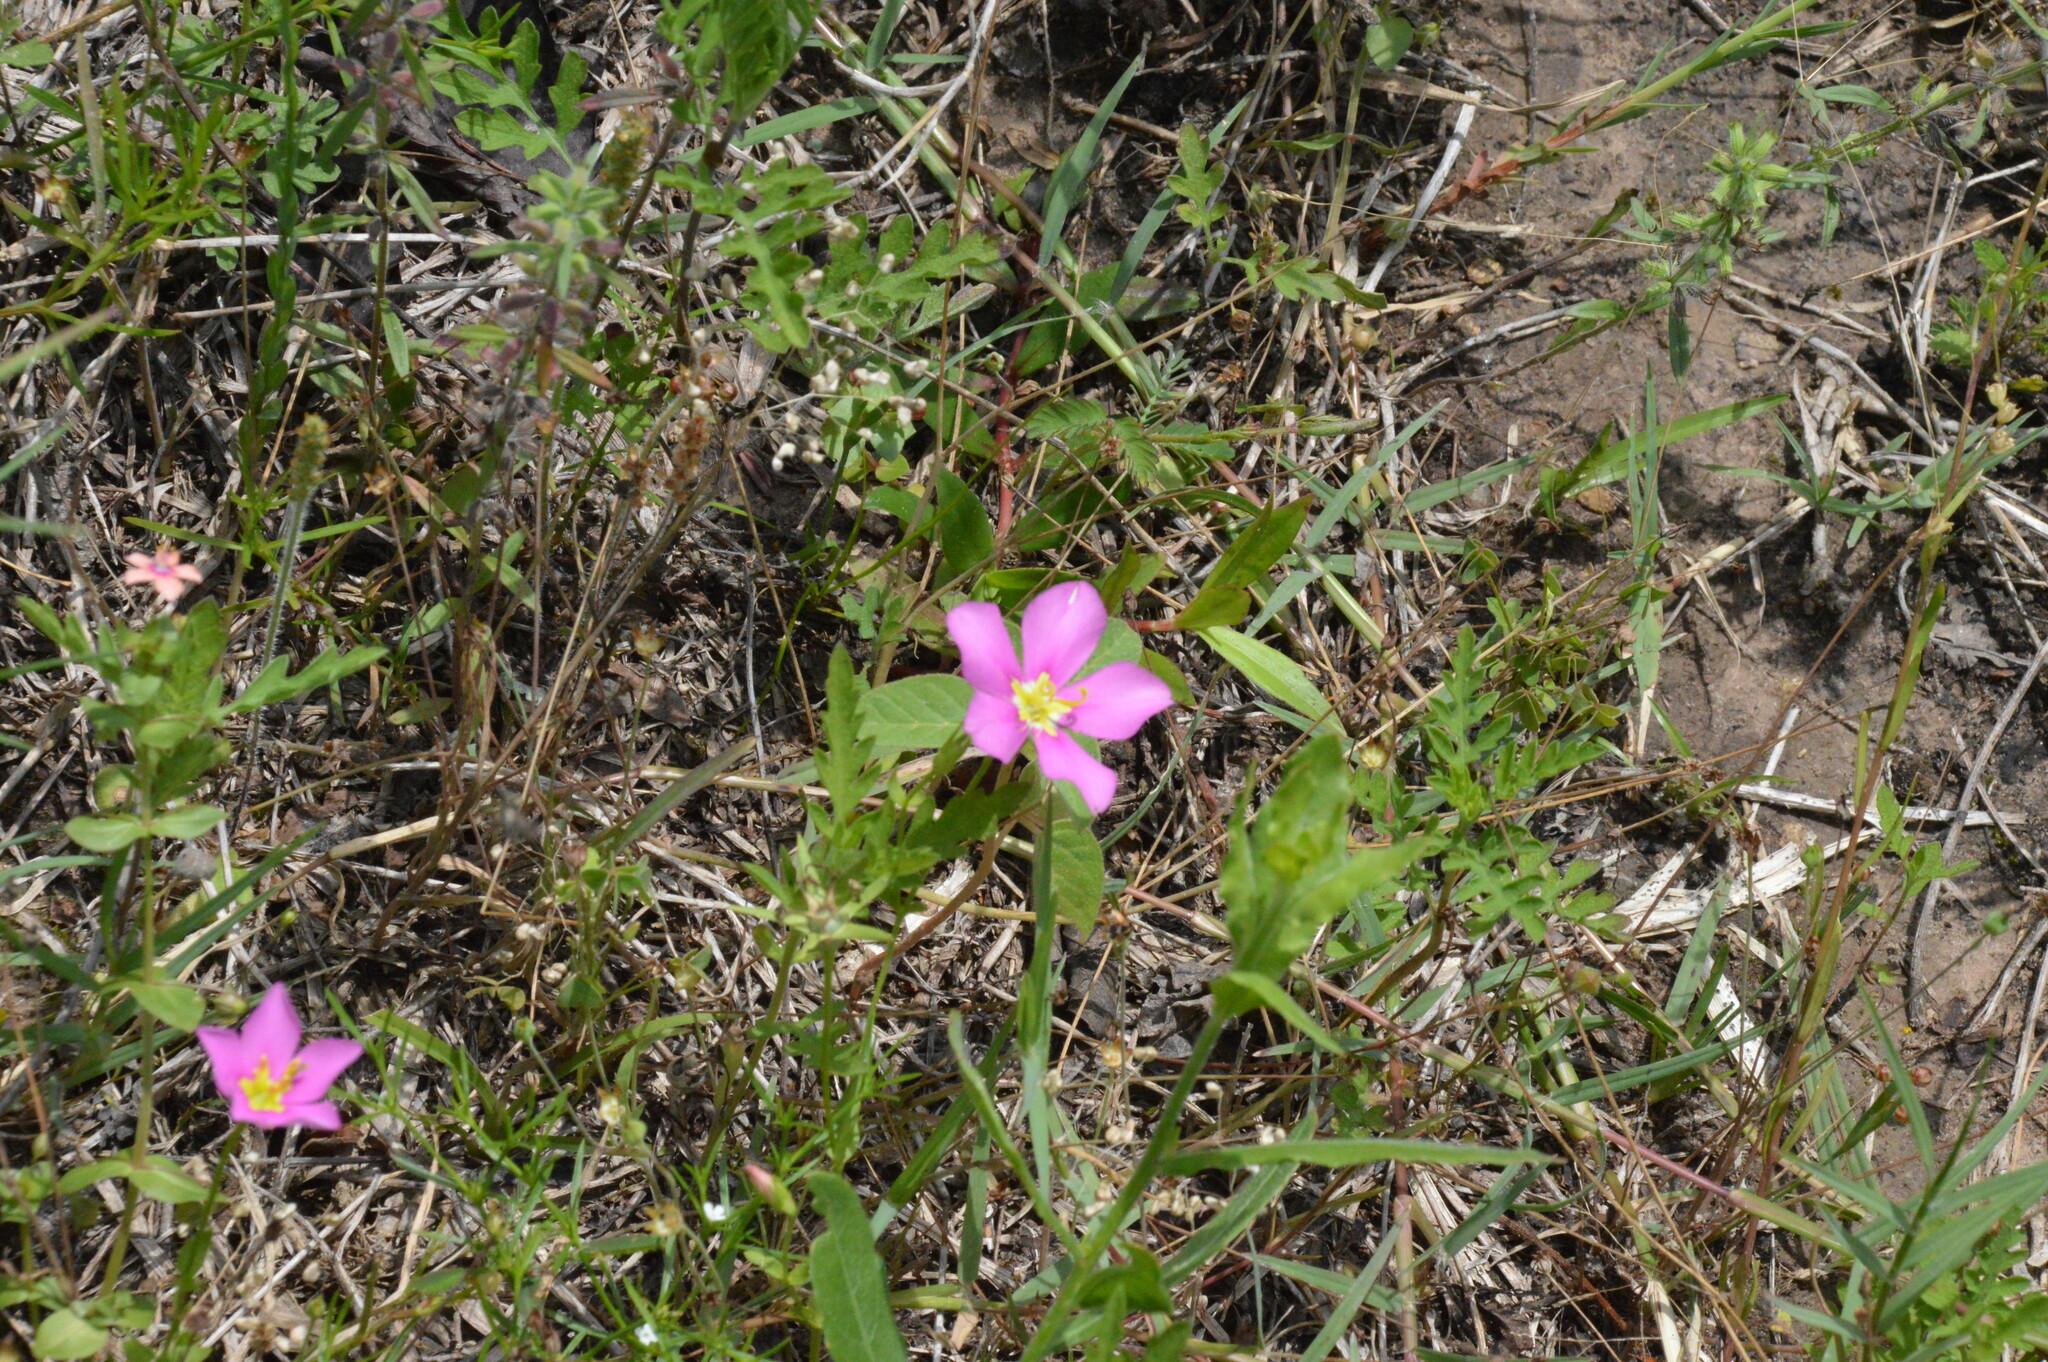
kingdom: Plantae
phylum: Tracheophyta
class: Magnoliopsida
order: Gentianales
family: Gentianaceae
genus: Sabatia
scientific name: Sabatia campestris
